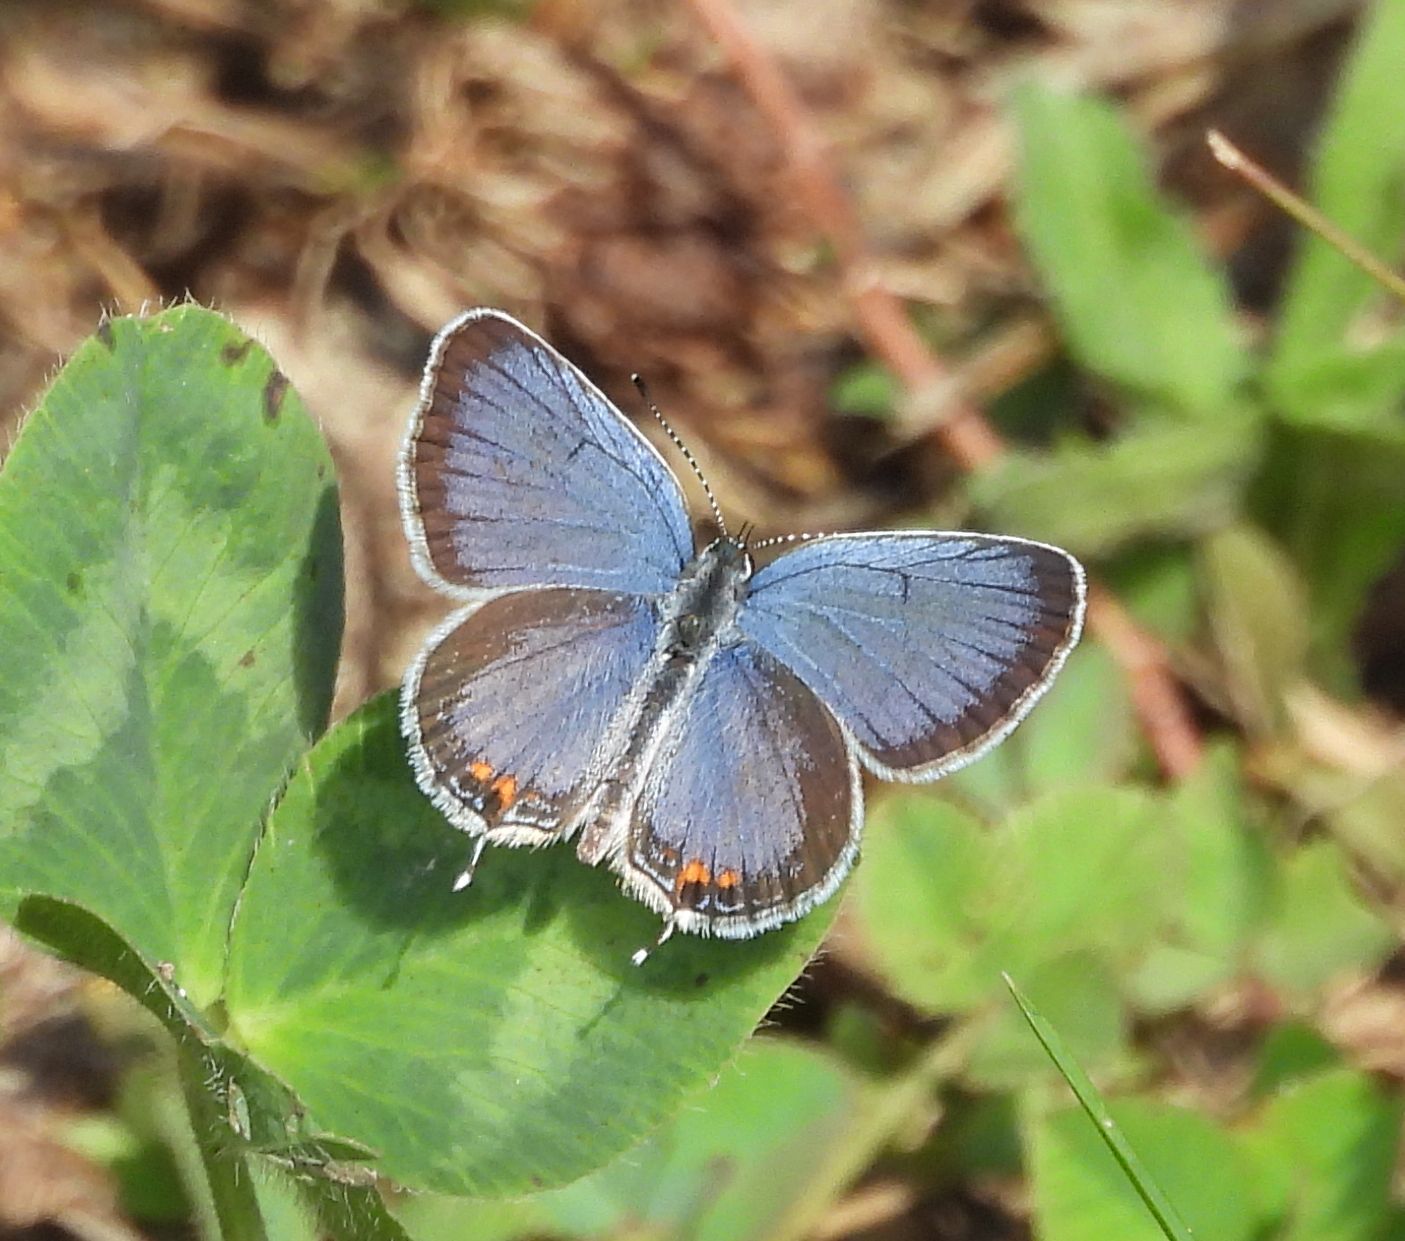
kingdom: Animalia
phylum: Arthropoda
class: Insecta
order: Lepidoptera
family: Lycaenidae
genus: Elkalyce
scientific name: Elkalyce comyntas
